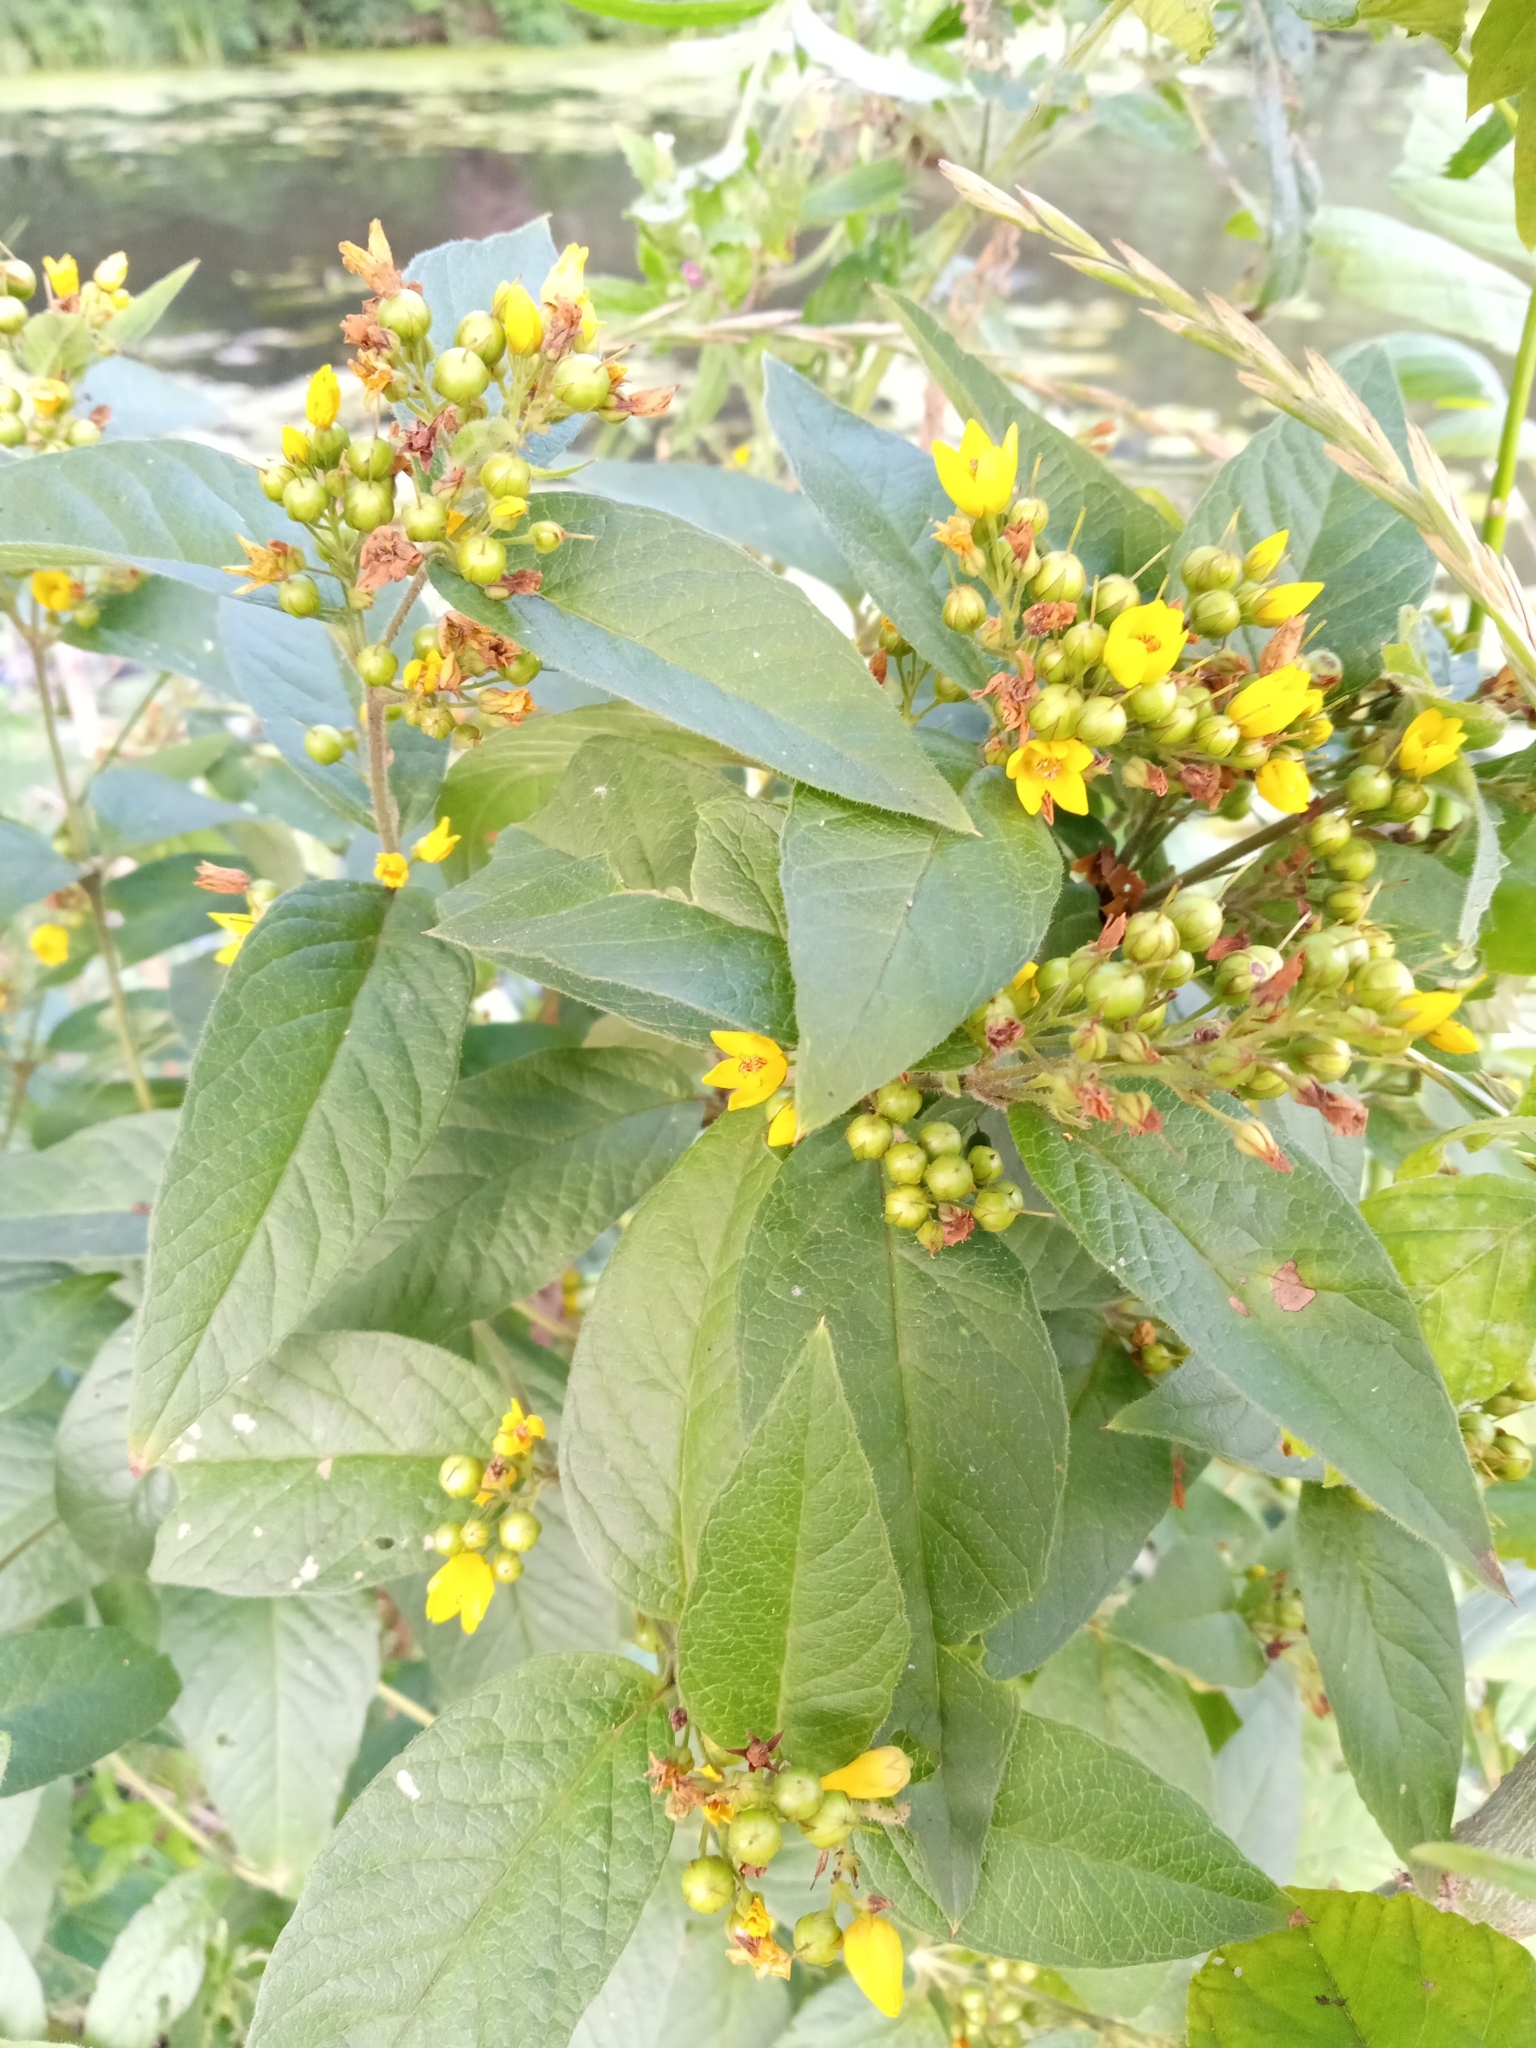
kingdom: Plantae
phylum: Tracheophyta
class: Magnoliopsida
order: Ericales
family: Primulaceae
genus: Lysimachia
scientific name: Lysimachia vulgaris
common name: Yellow loosestrife
